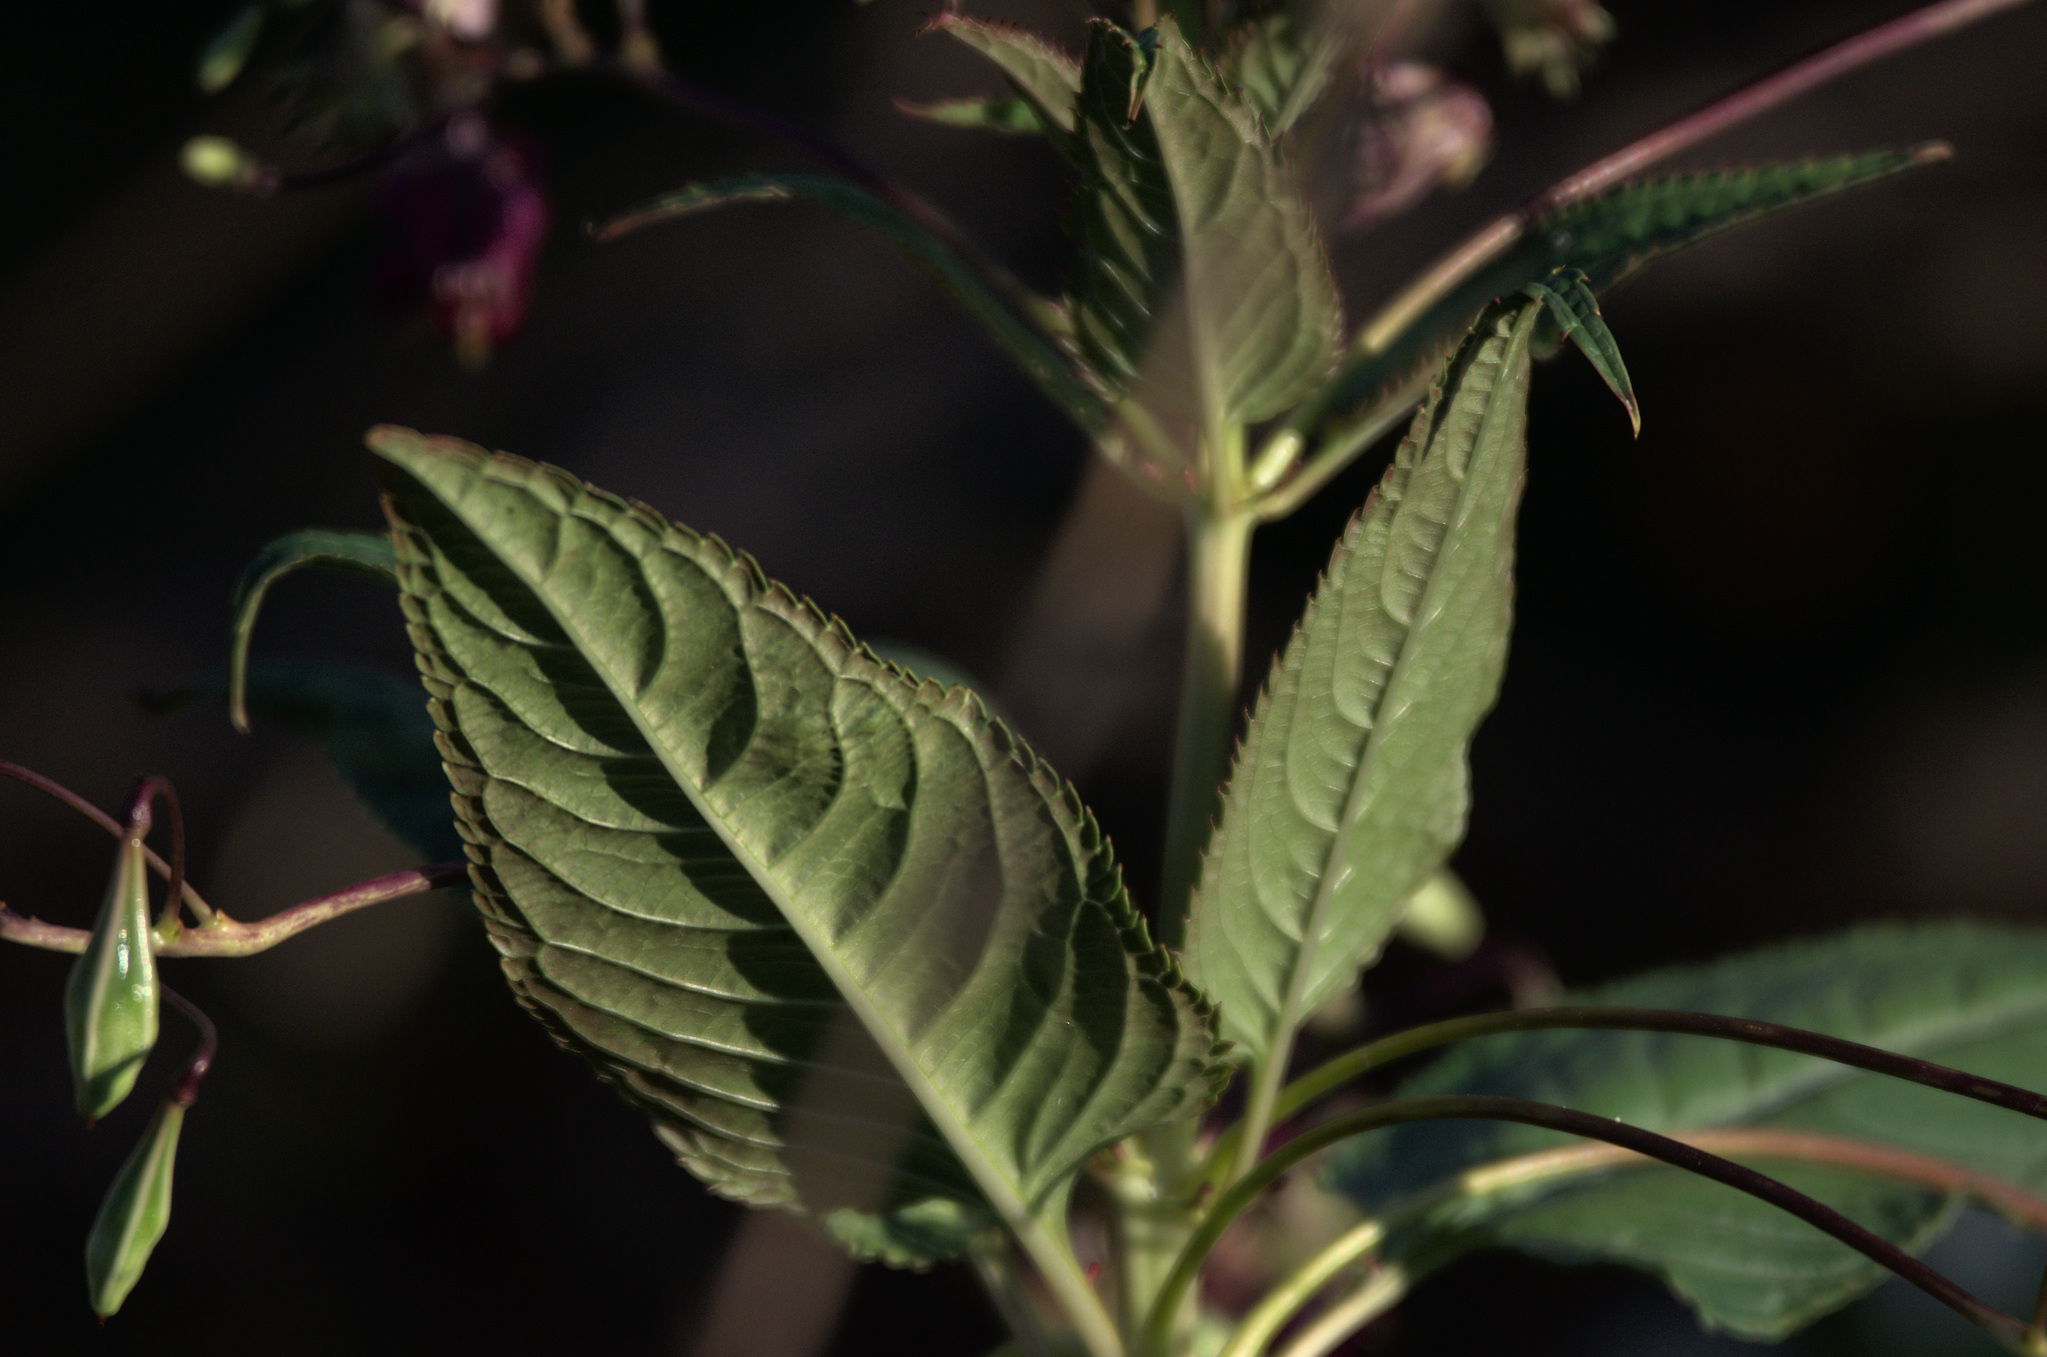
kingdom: Plantae
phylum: Tracheophyta
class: Magnoliopsida
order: Ericales
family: Balsaminaceae
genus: Impatiens
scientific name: Impatiens glandulifera
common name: Himalayan balsam
